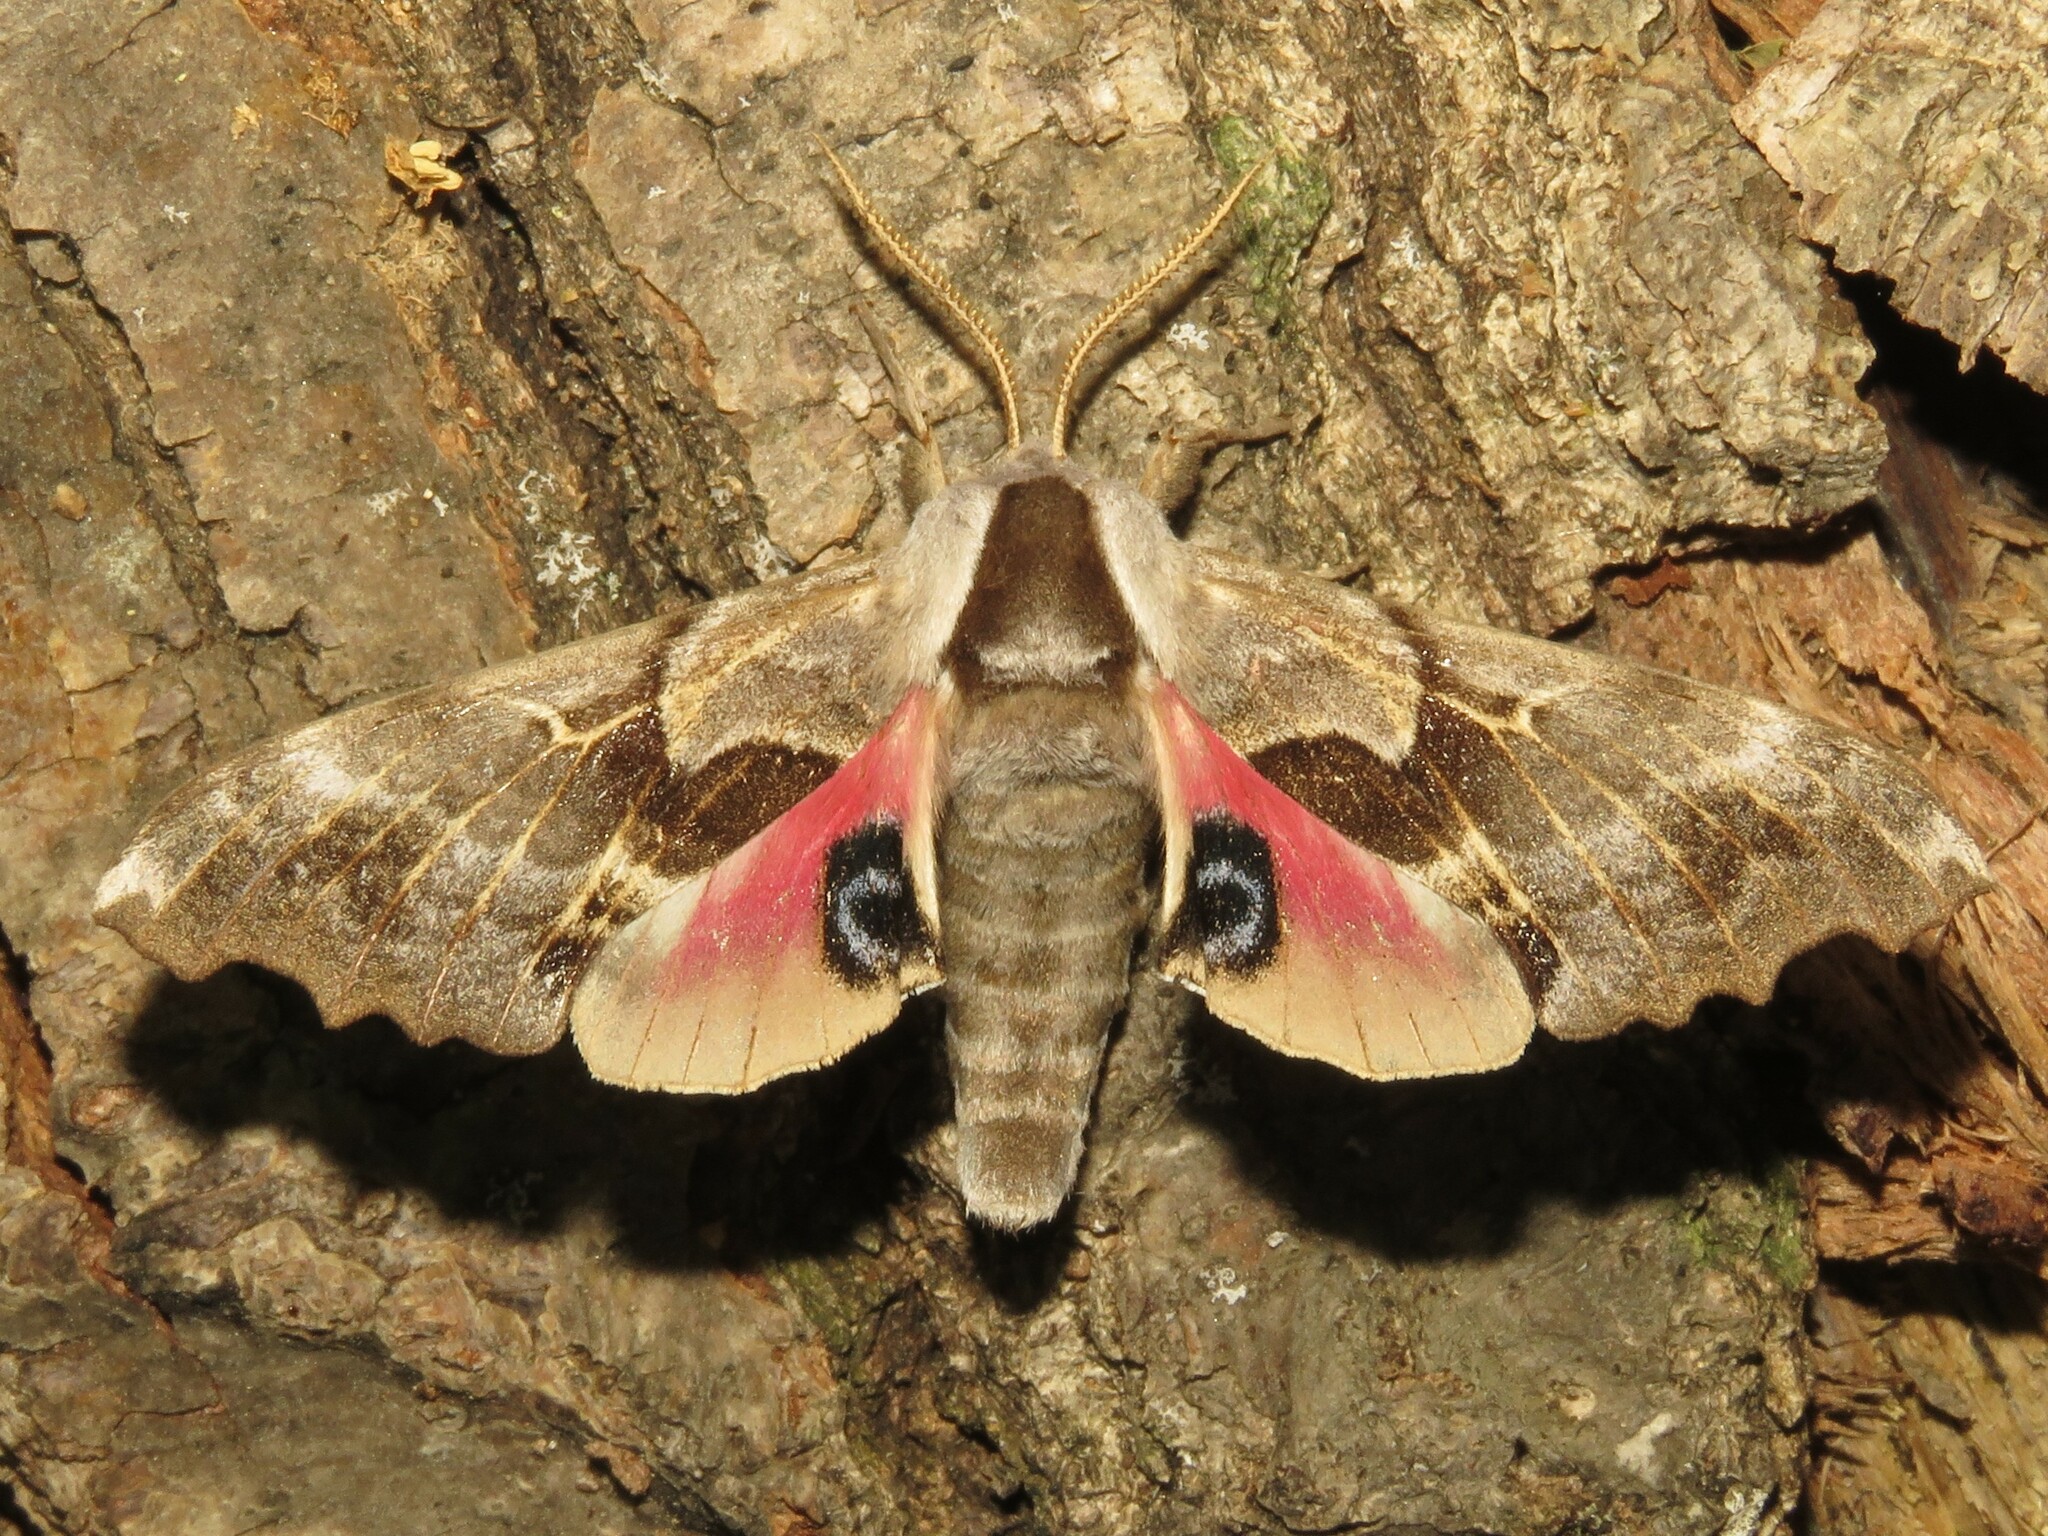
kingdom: Animalia
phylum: Arthropoda
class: Insecta
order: Lepidoptera
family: Sphingidae
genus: Smerinthus
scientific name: Smerinthus cerisyi
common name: Cerisy's sphinx moth
